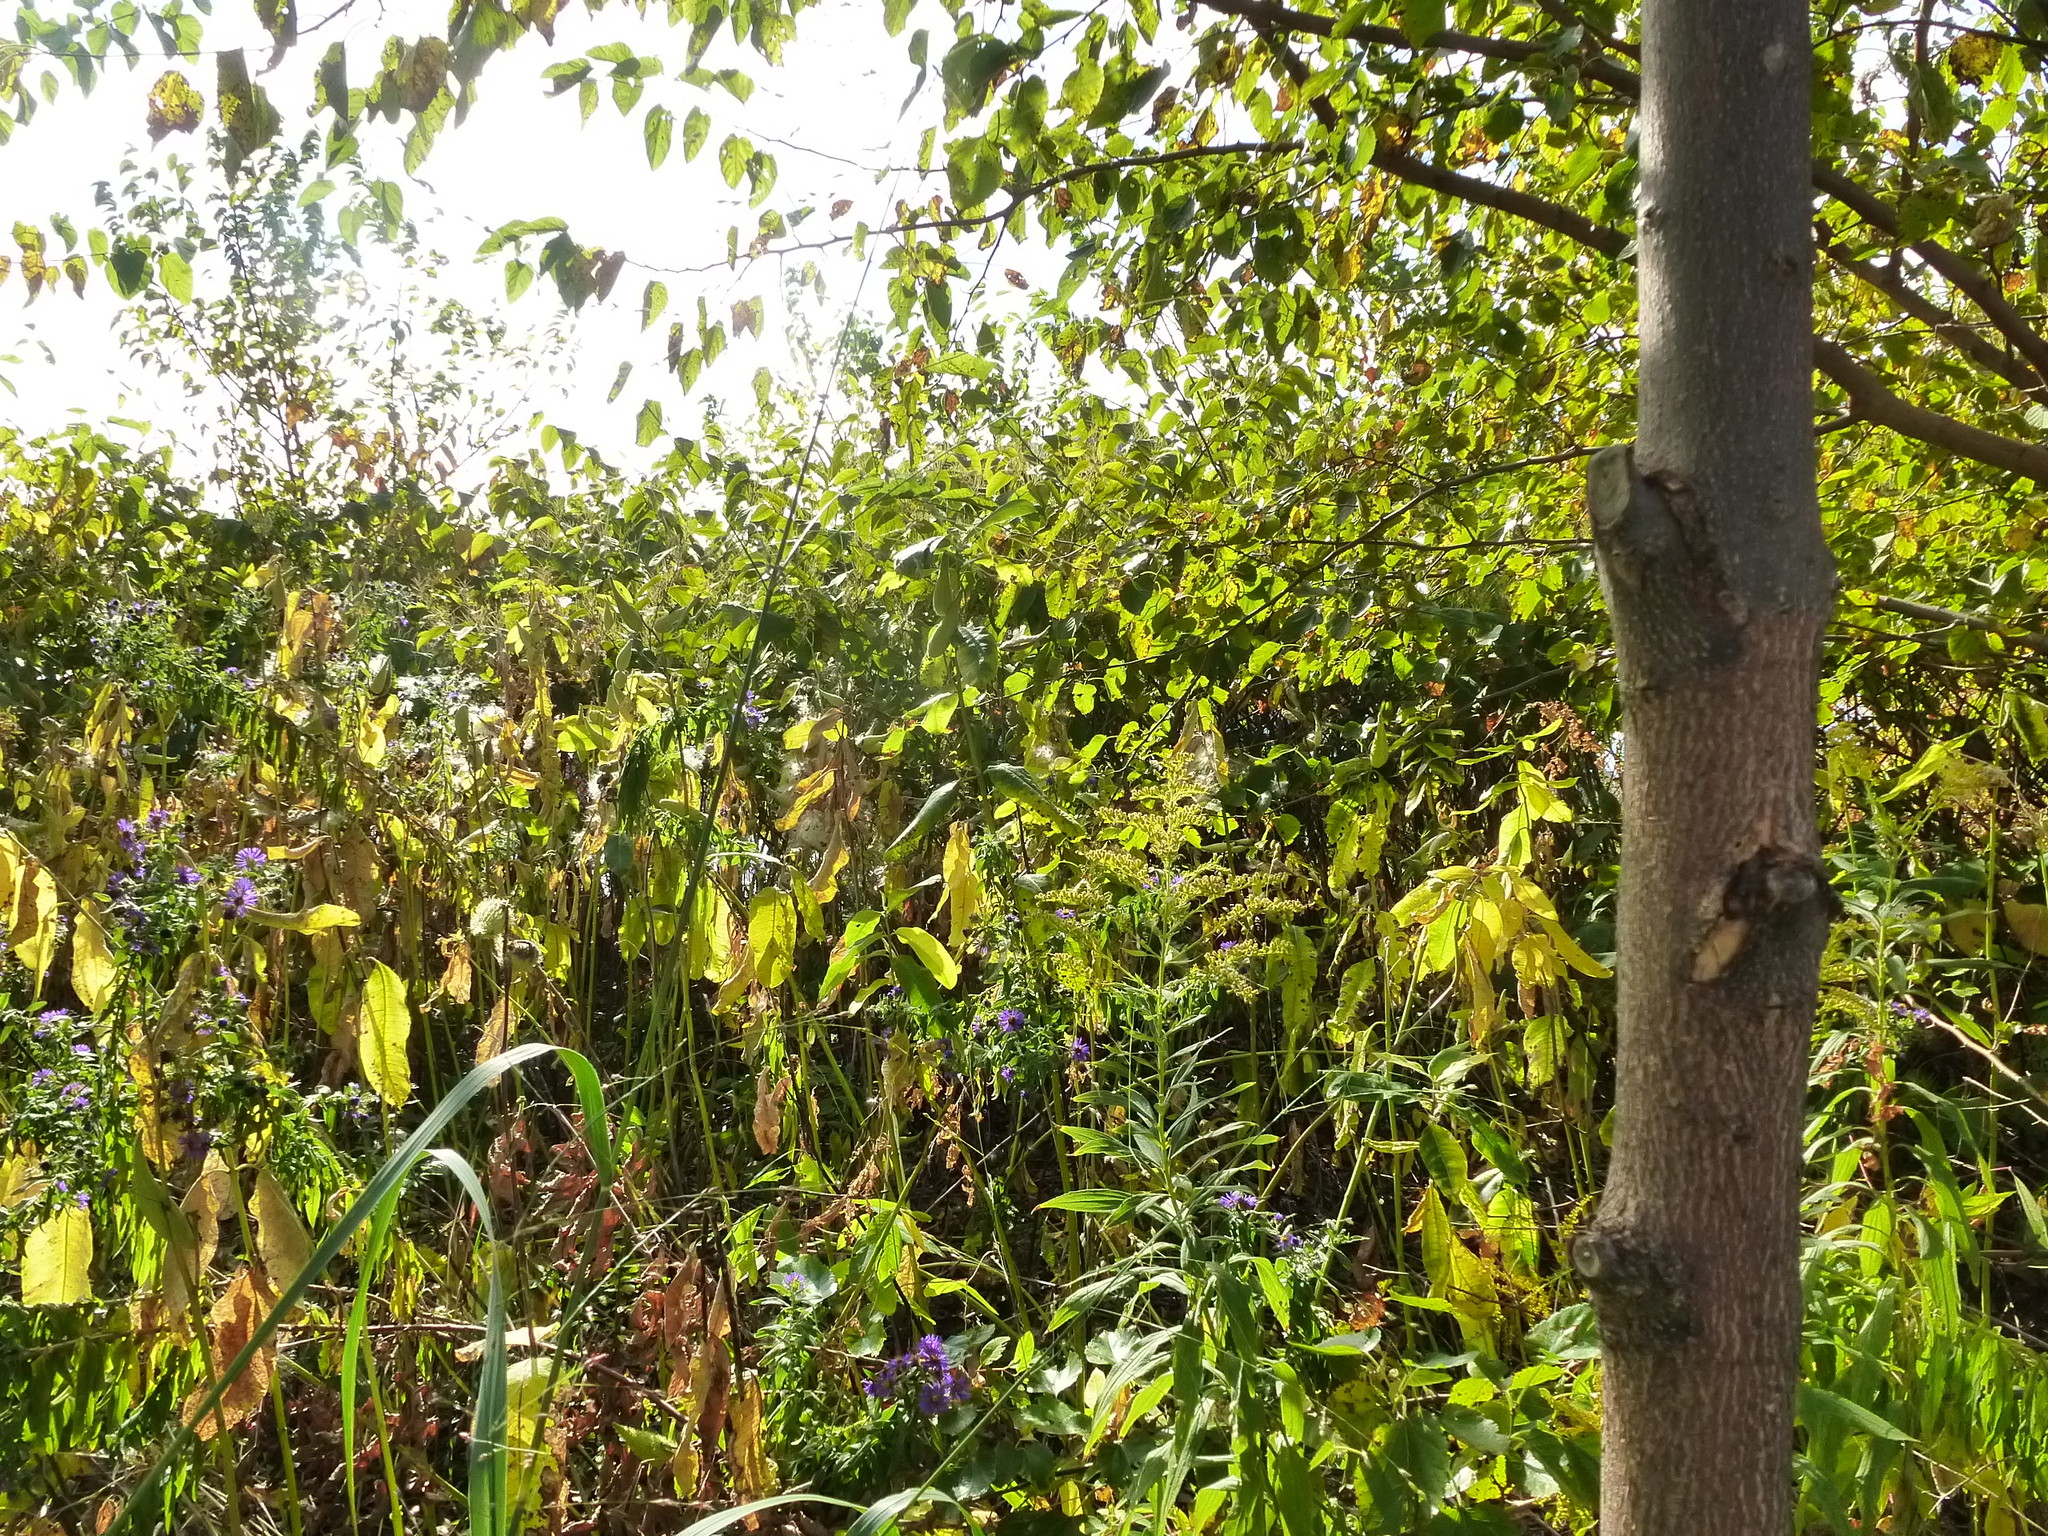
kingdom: Plantae
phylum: Tracheophyta
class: Magnoliopsida
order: Asterales
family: Asteraceae
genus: Symphyotrichum
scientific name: Symphyotrichum novae-angliae
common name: Michaelmas daisy
